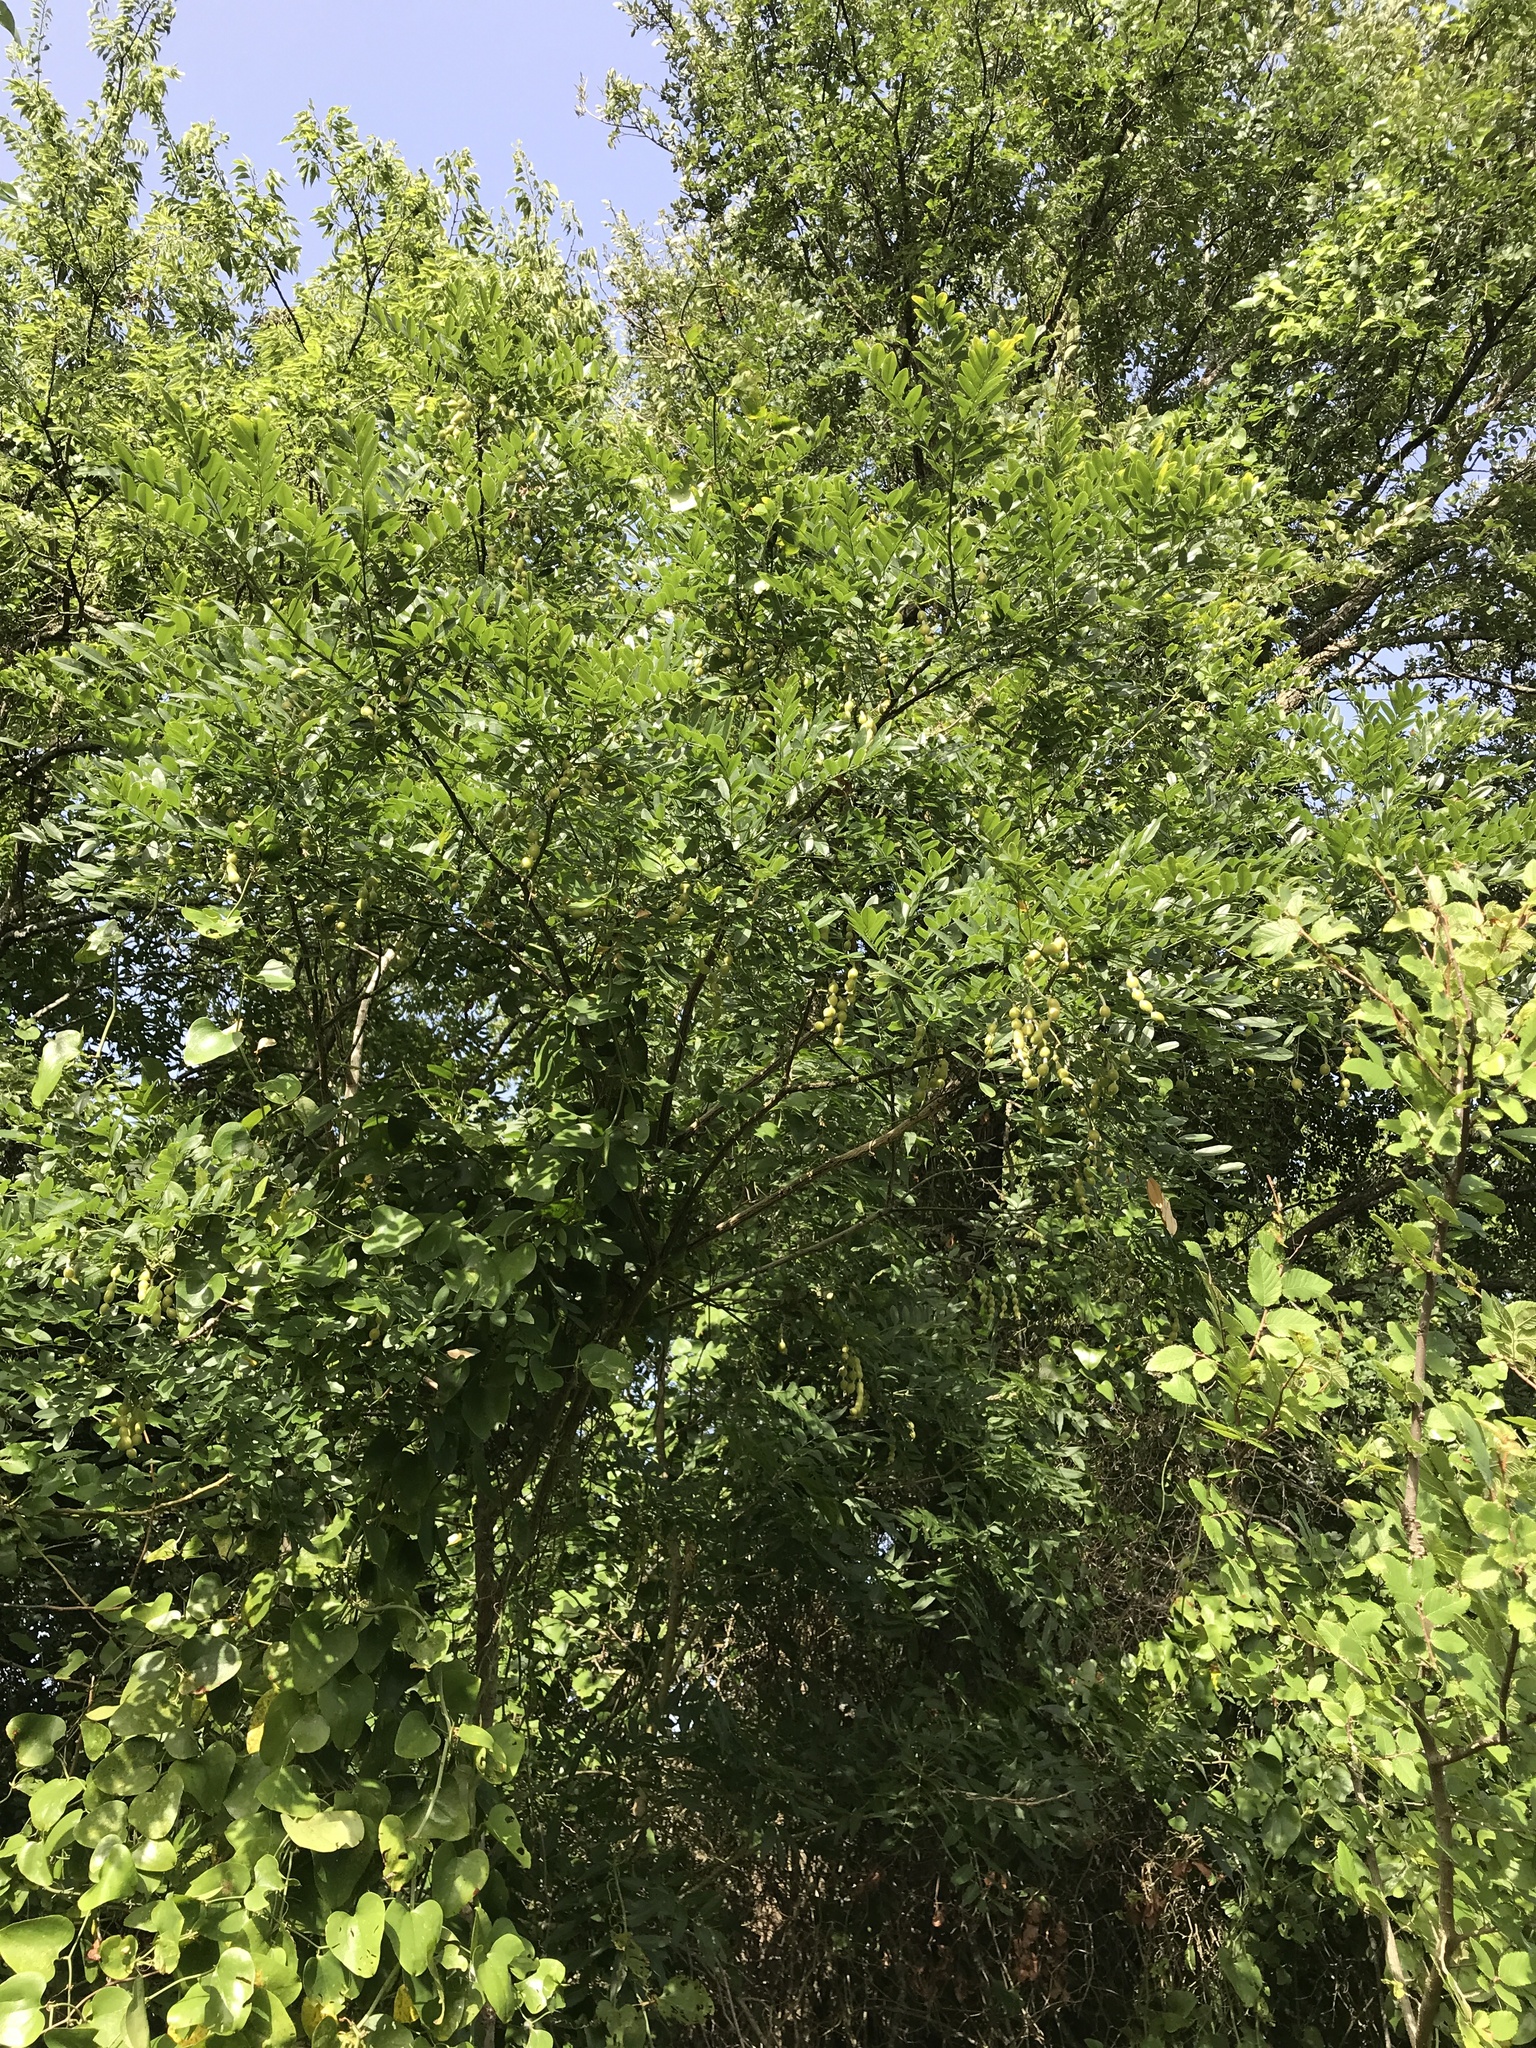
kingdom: Plantae
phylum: Tracheophyta
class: Magnoliopsida
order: Fabales
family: Fabaceae
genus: Styphnolobium
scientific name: Styphnolobium affine
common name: Texas sophora
